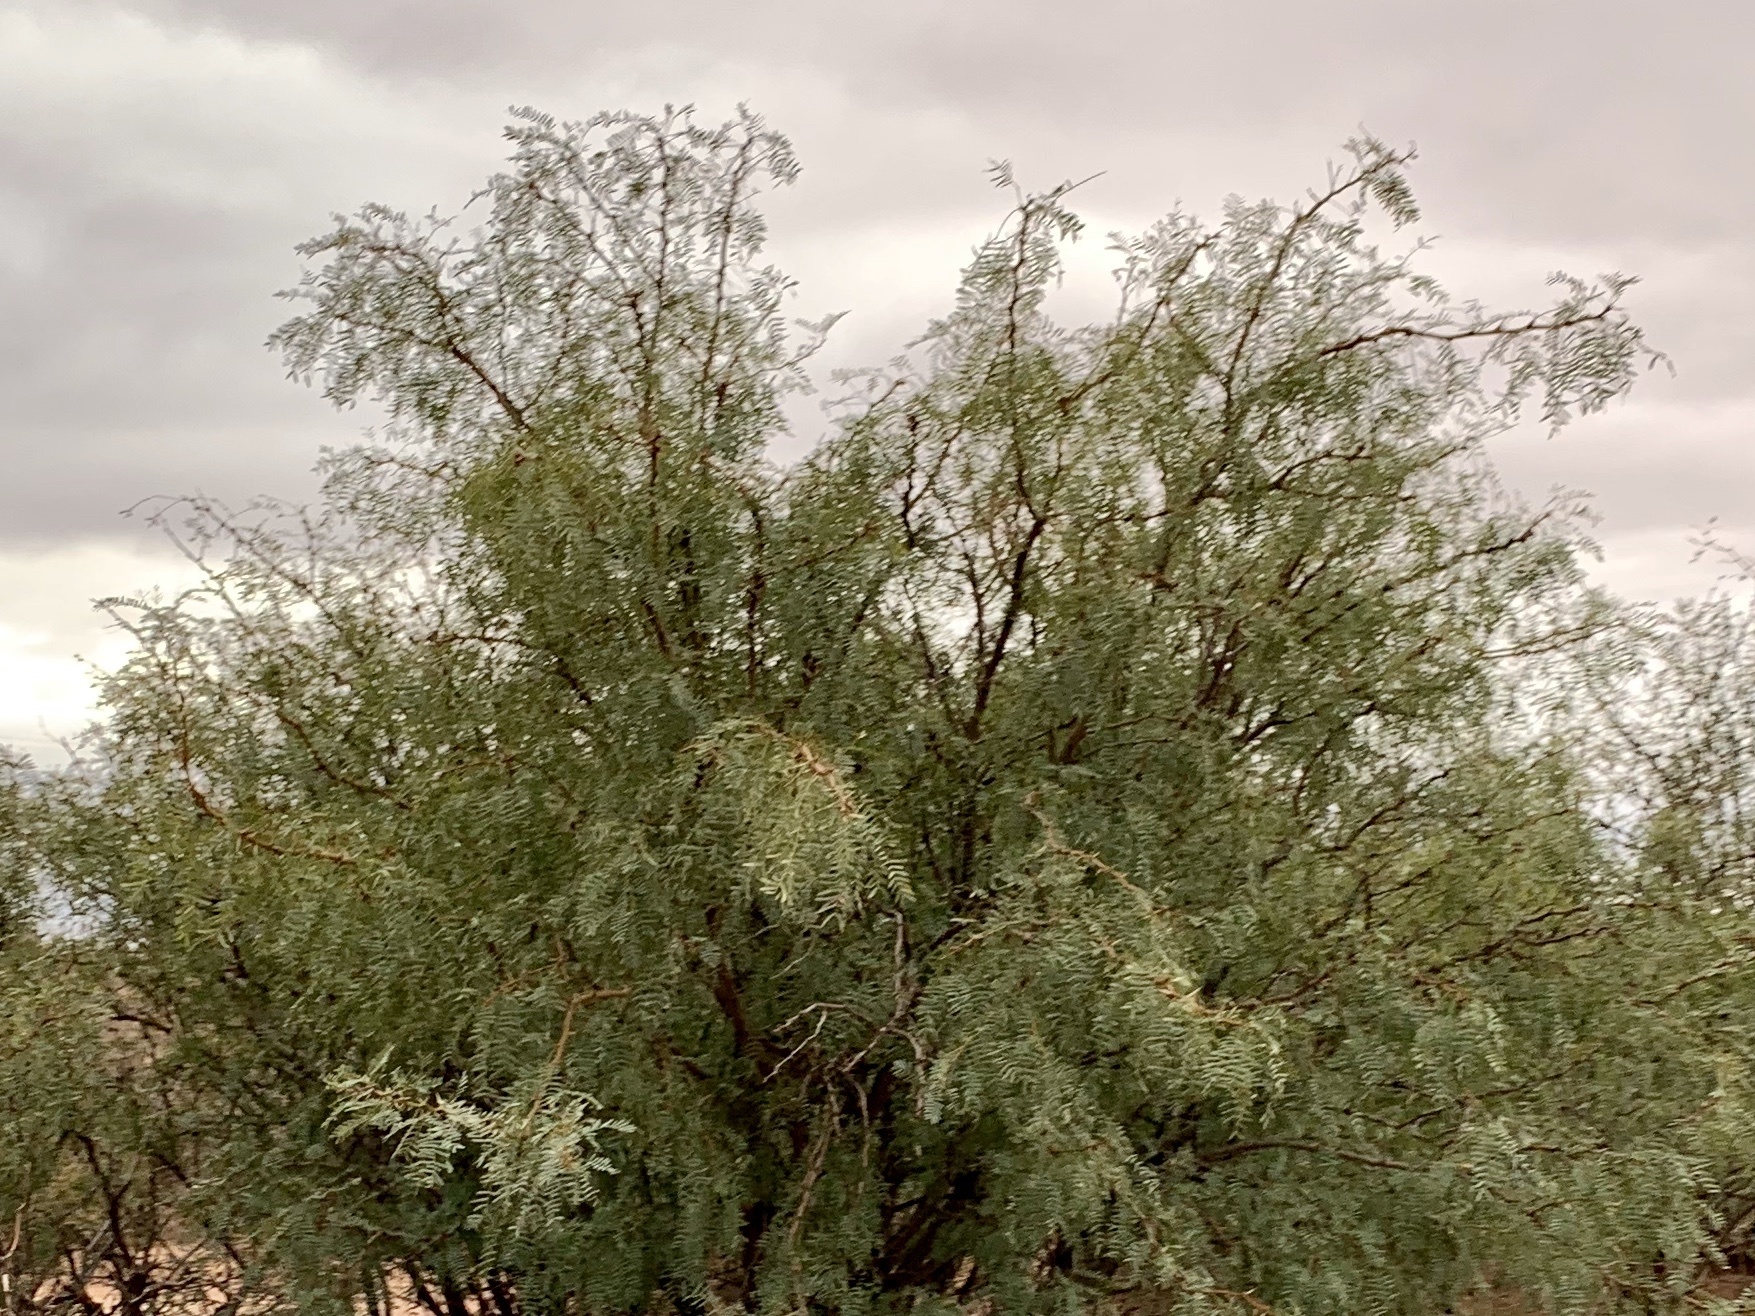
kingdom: Plantae
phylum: Tracheophyta
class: Magnoliopsida
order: Fabales
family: Fabaceae
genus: Prosopis
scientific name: Prosopis glandulosa
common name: Honey mesquite
